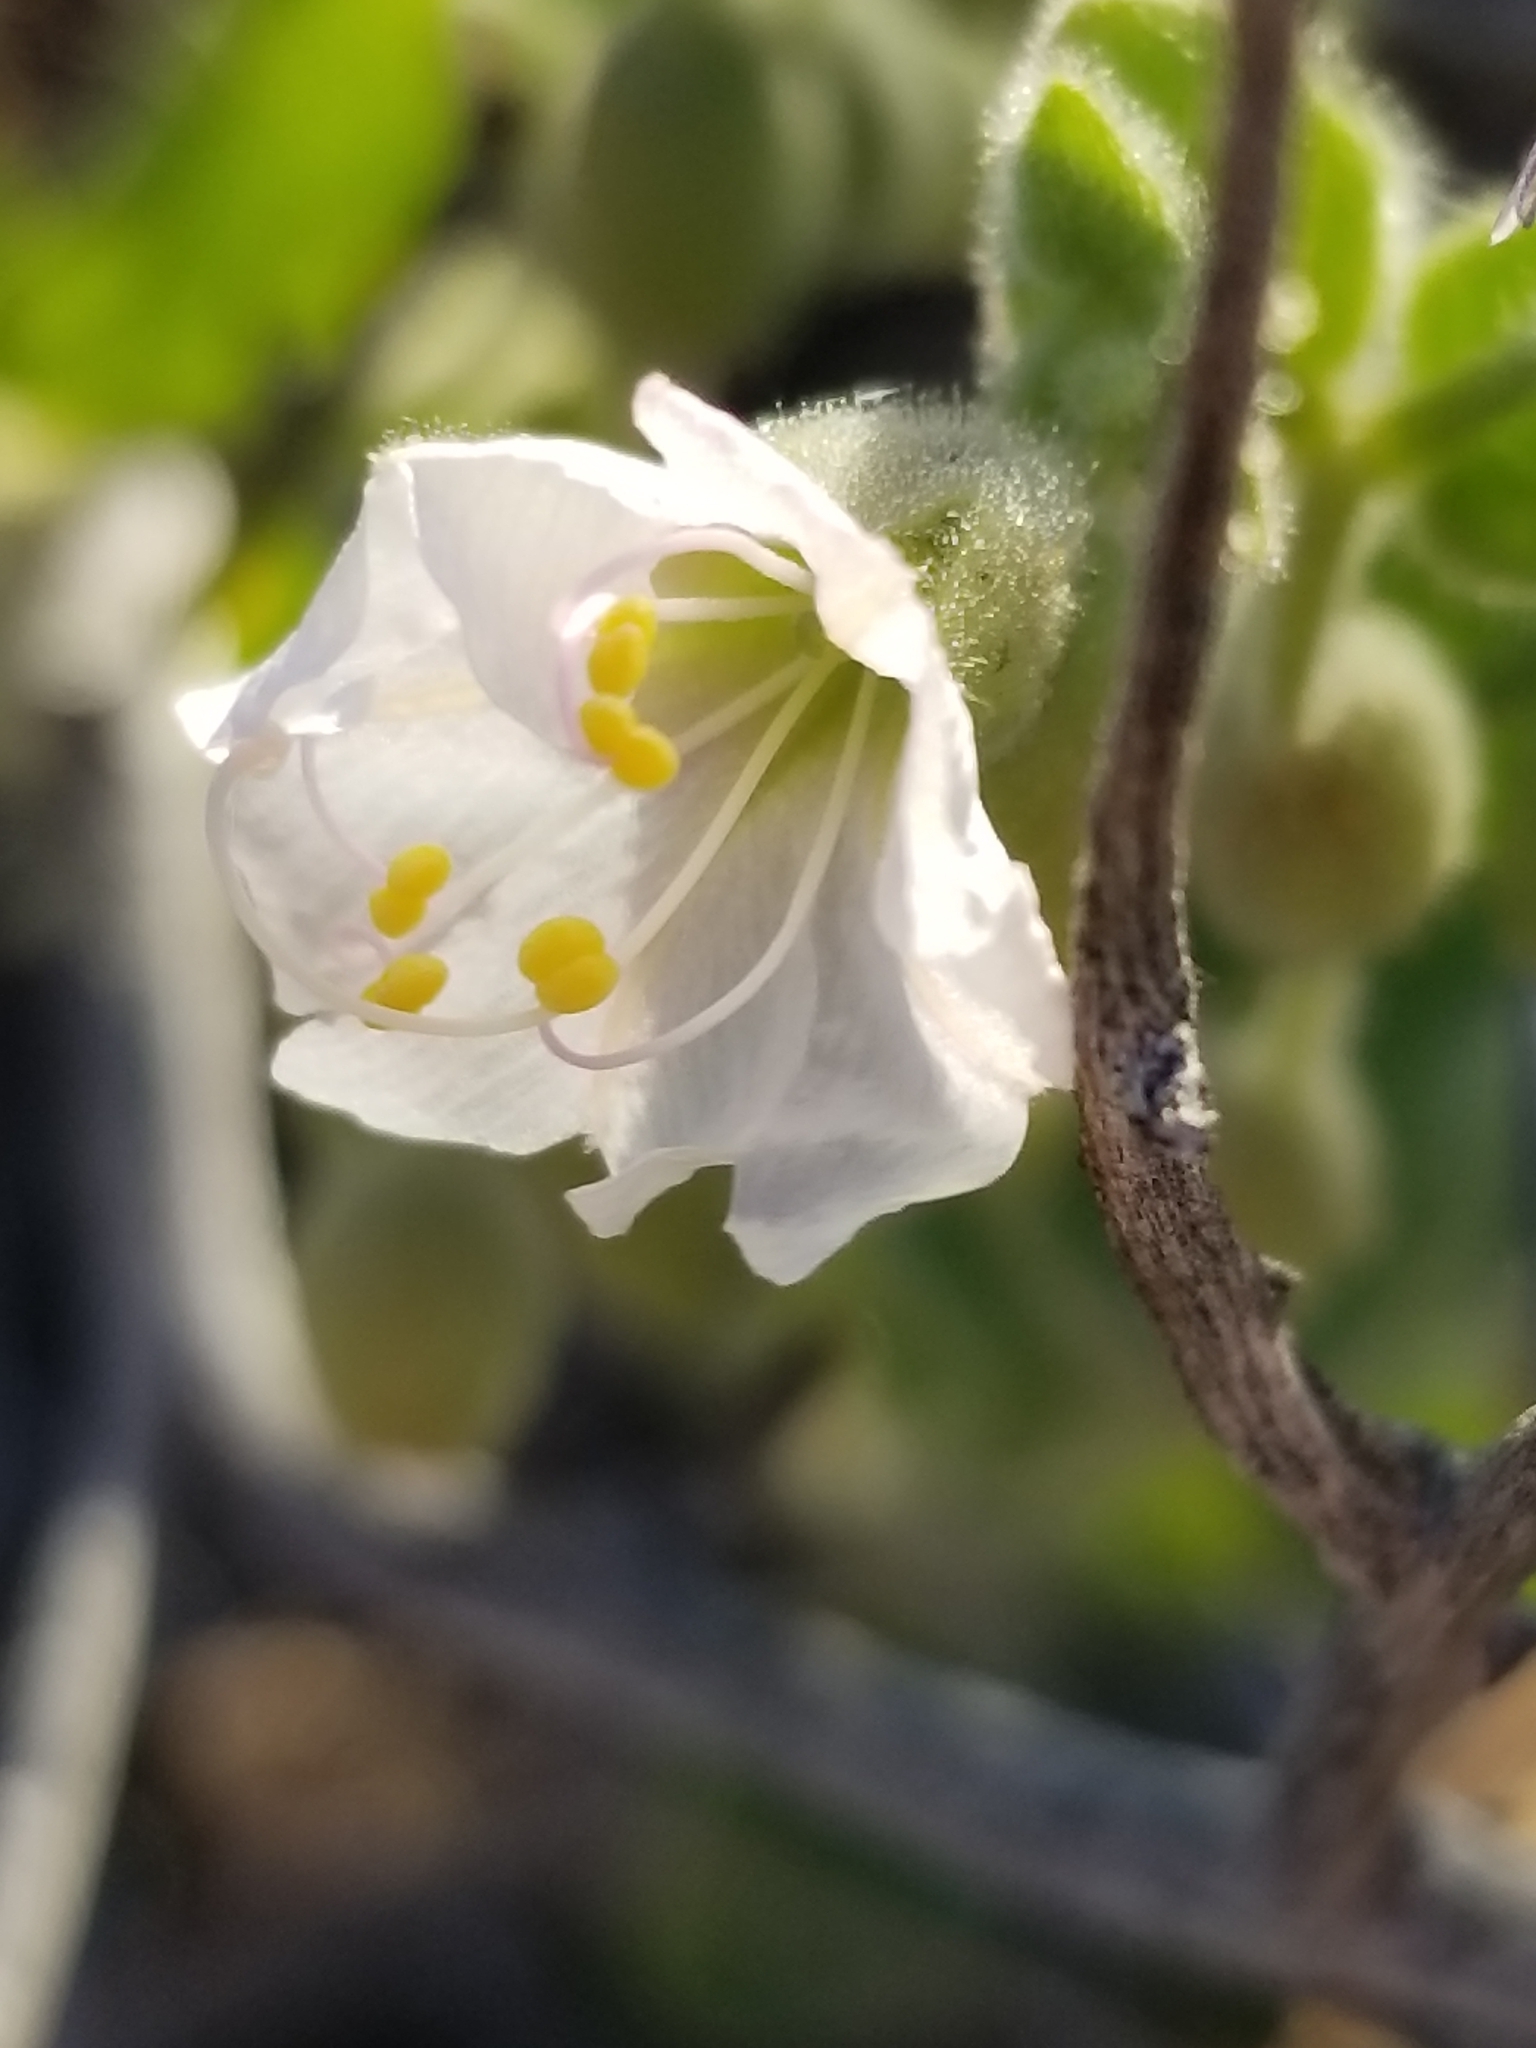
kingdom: Plantae
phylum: Tracheophyta
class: Magnoliopsida
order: Caryophyllales
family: Nyctaginaceae
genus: Mirabilis
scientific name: Mirabilis laevis
